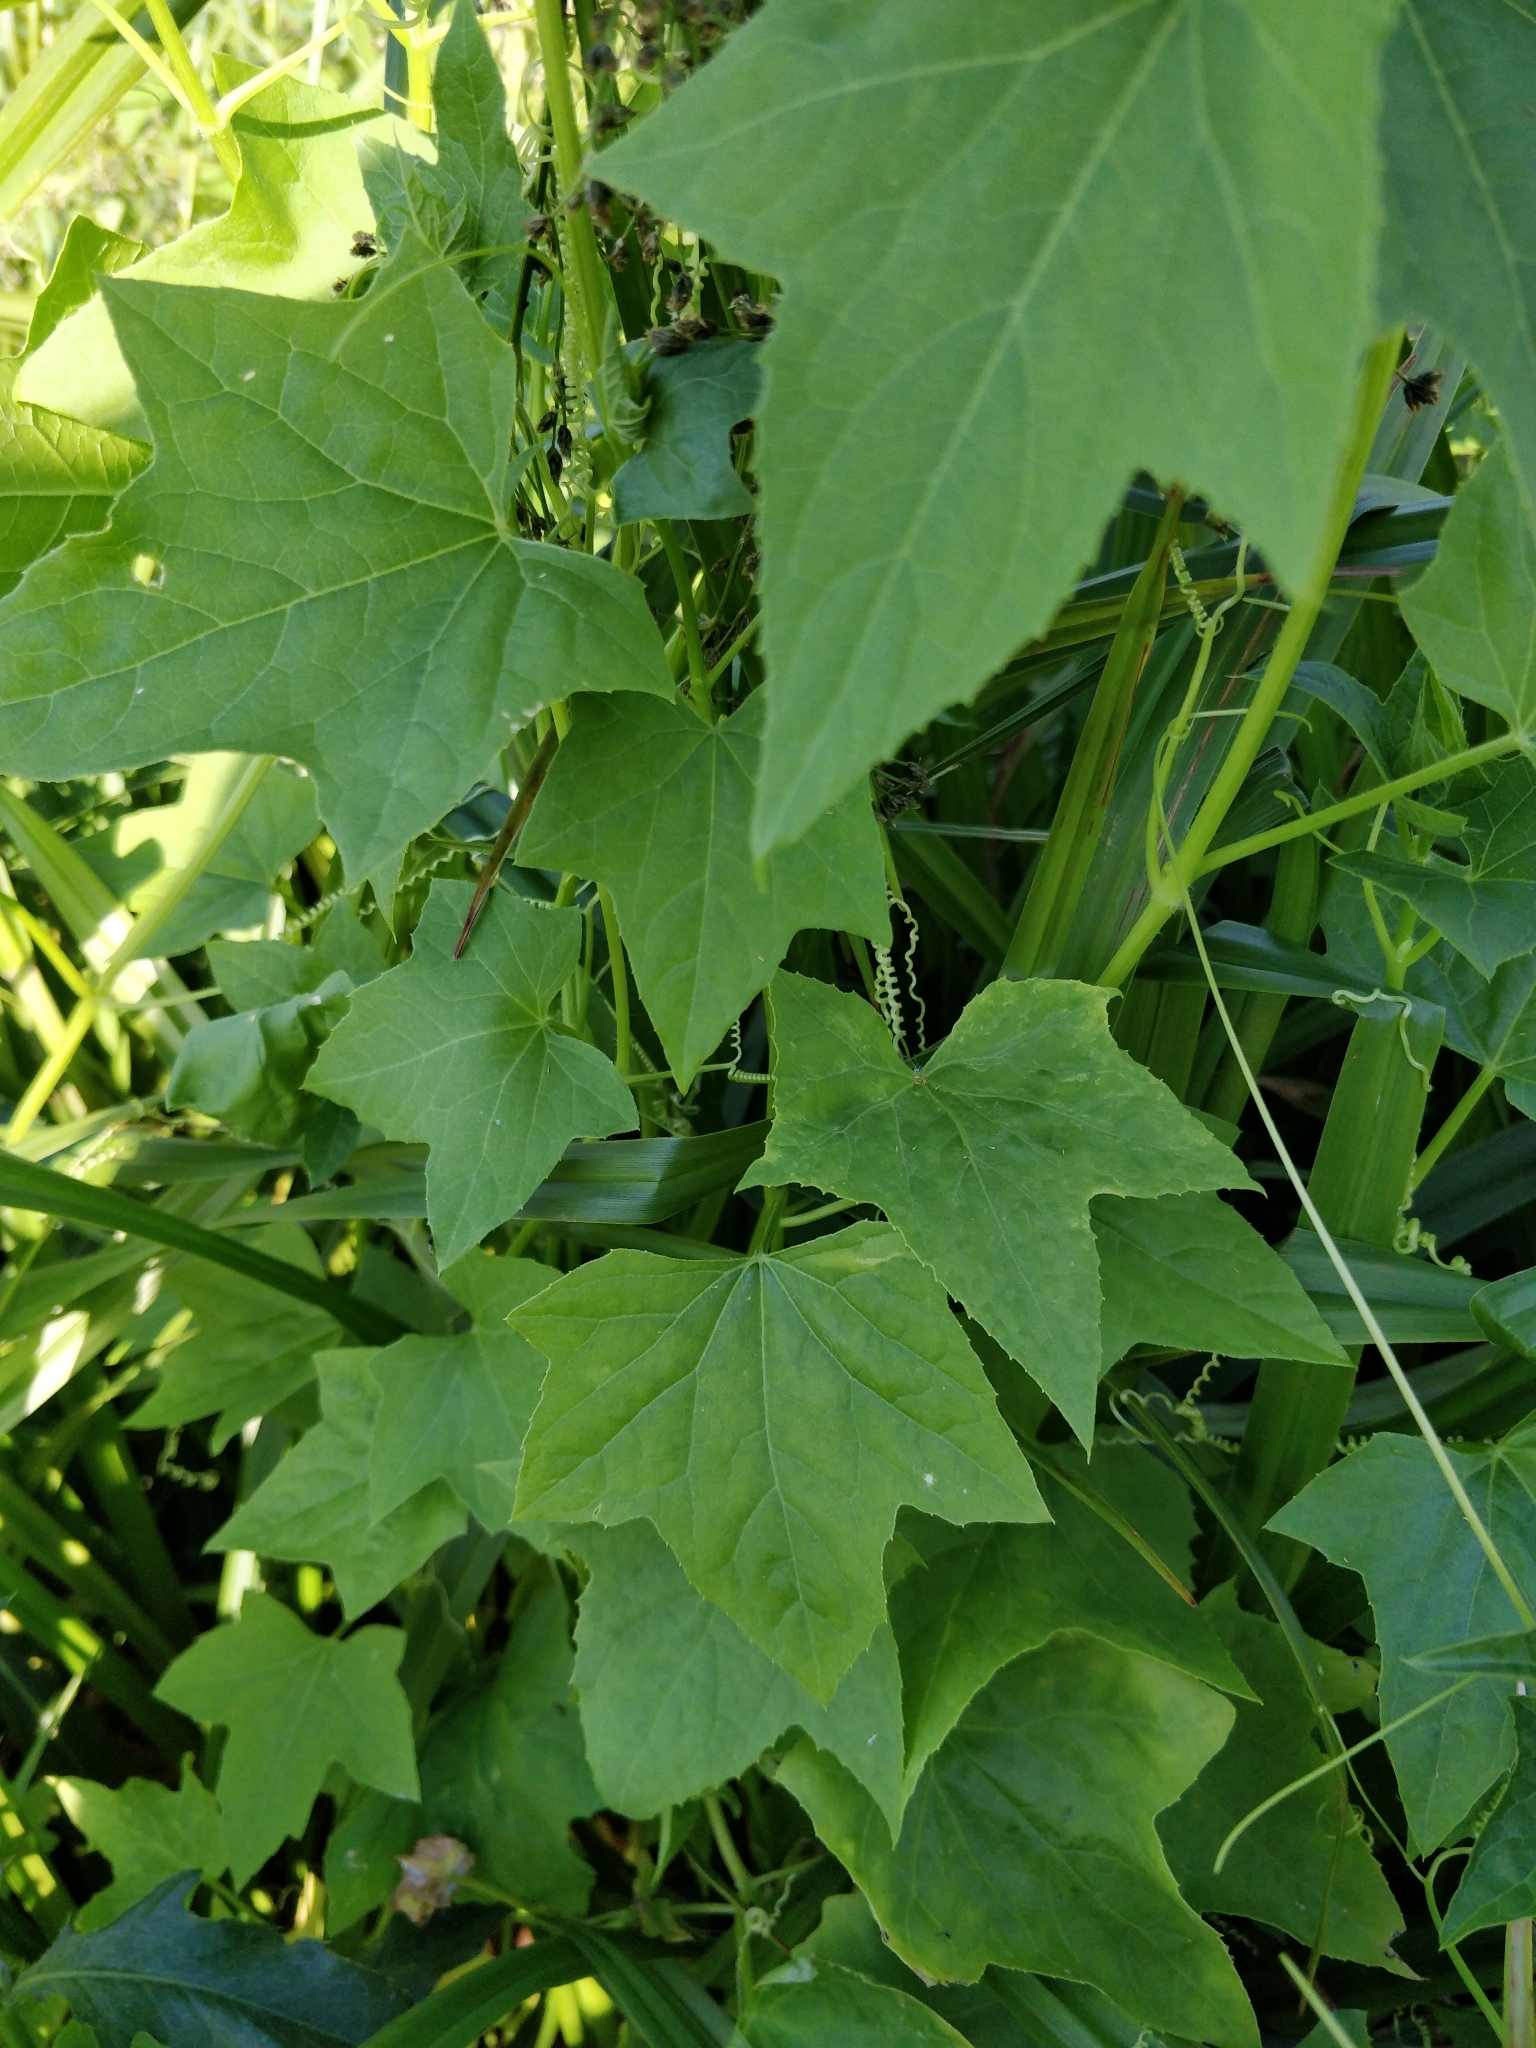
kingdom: Plantae
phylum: Tracheophyta
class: Magnoliopsida
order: Cucurbitales
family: Cucurbitaceae
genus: Echinocystis
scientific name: Echinocystis lobata
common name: Wild cucumber
